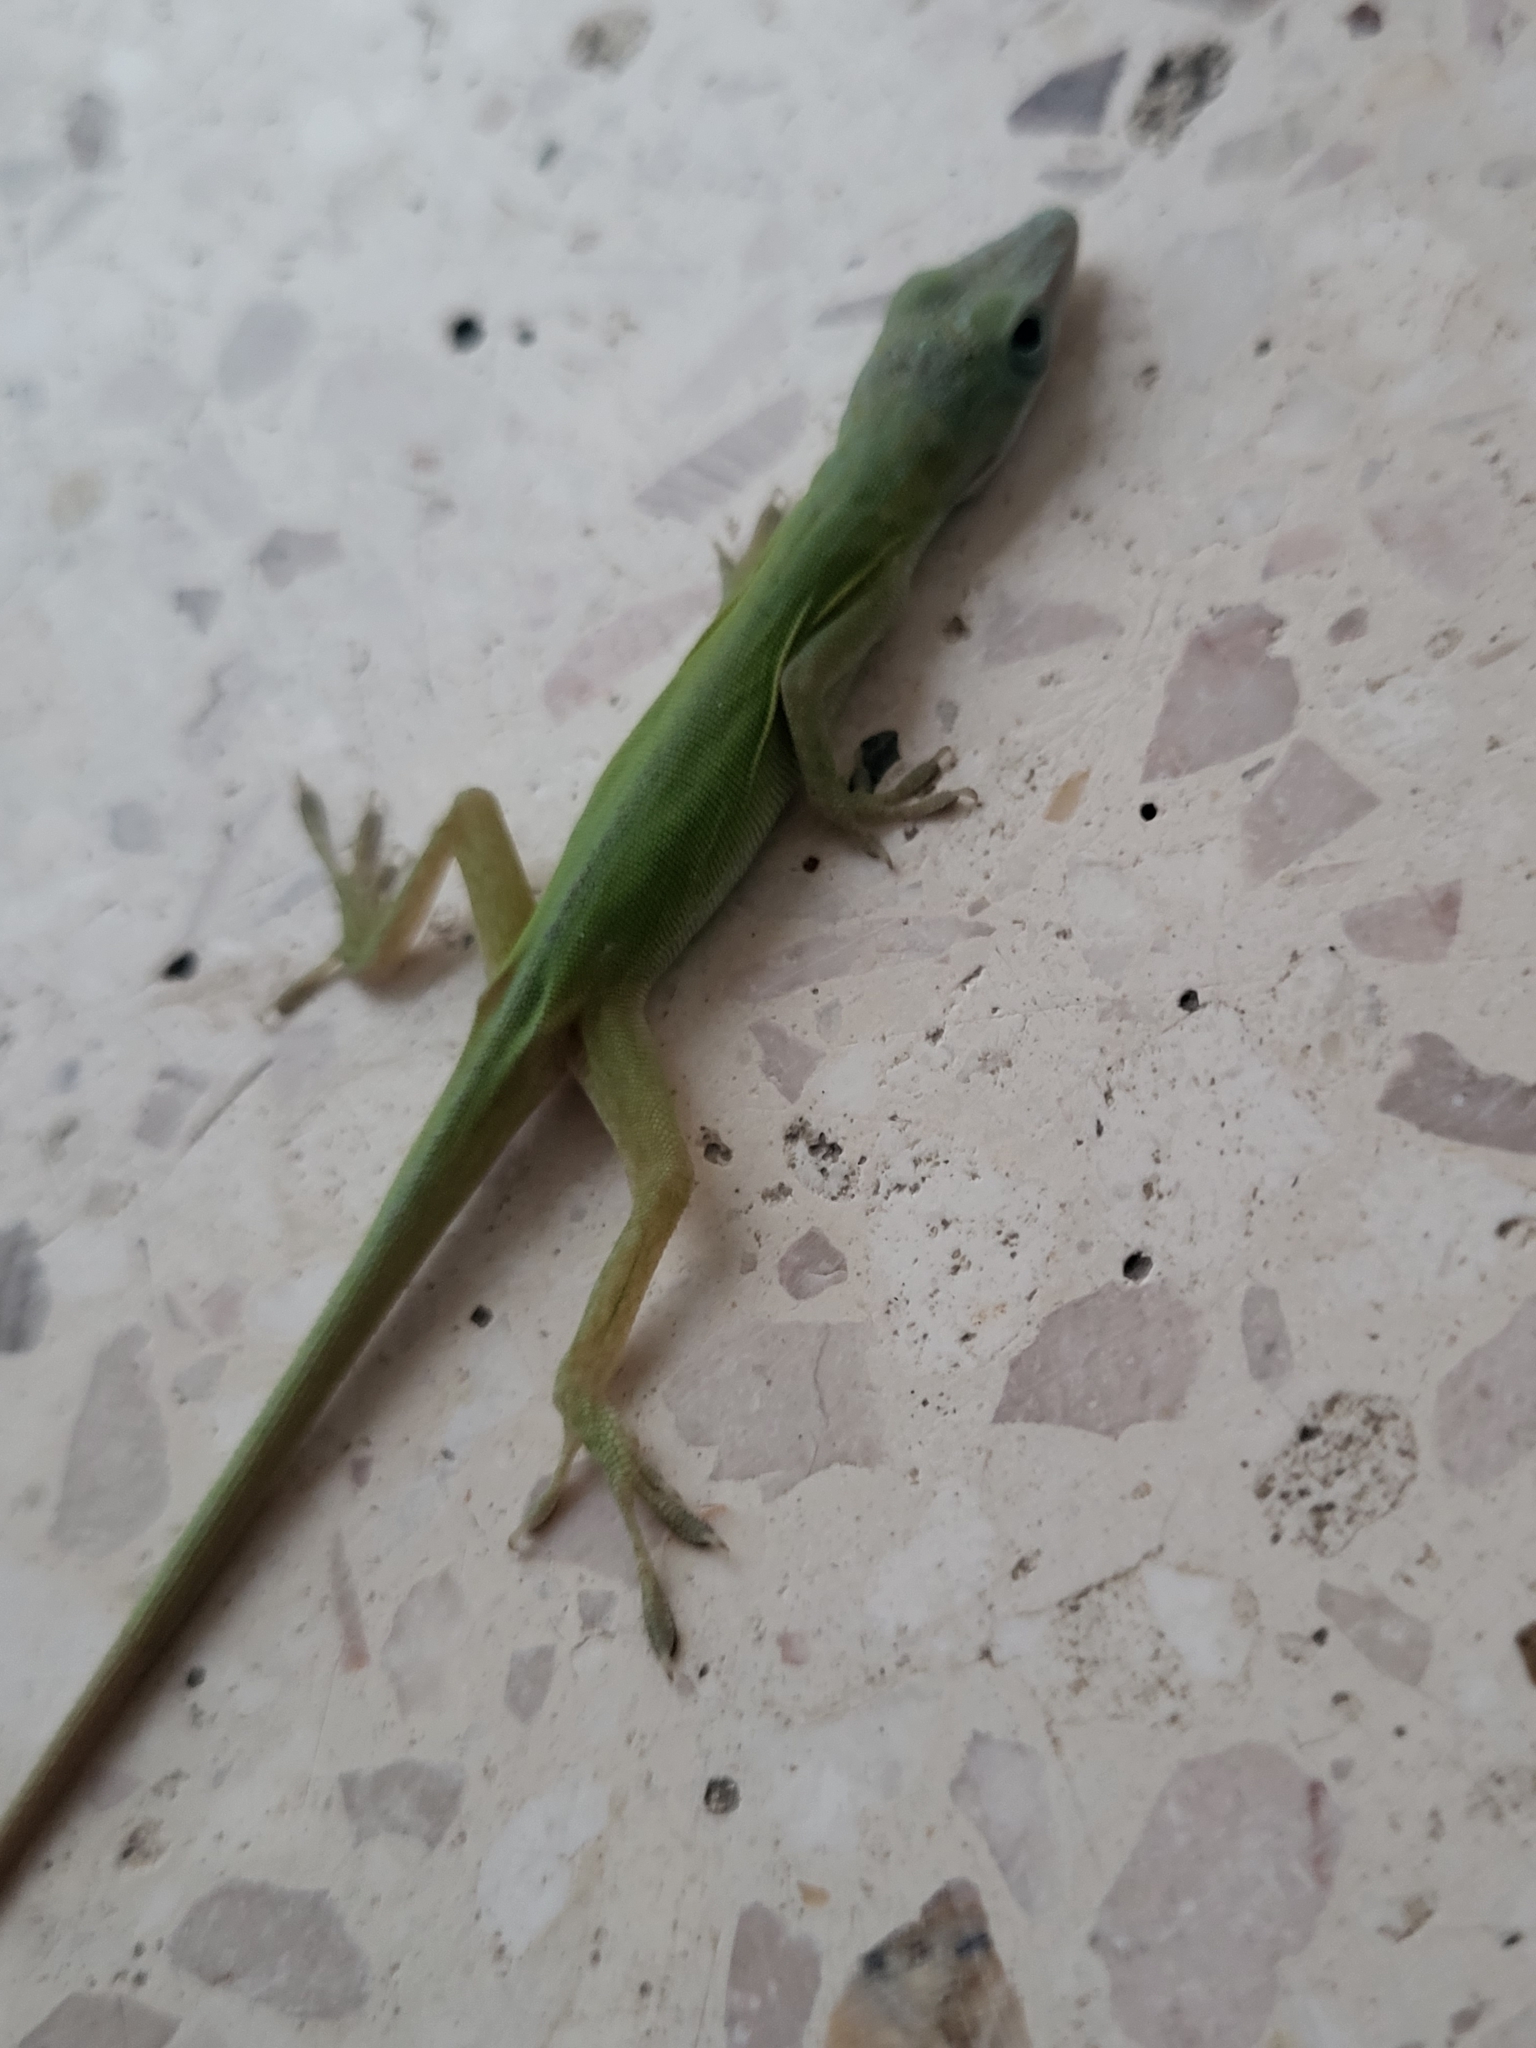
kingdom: Animalia
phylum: Chordata
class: Squamata
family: Dactyloidae
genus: Anolis
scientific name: Anolis porcatus
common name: Cuban green anole
